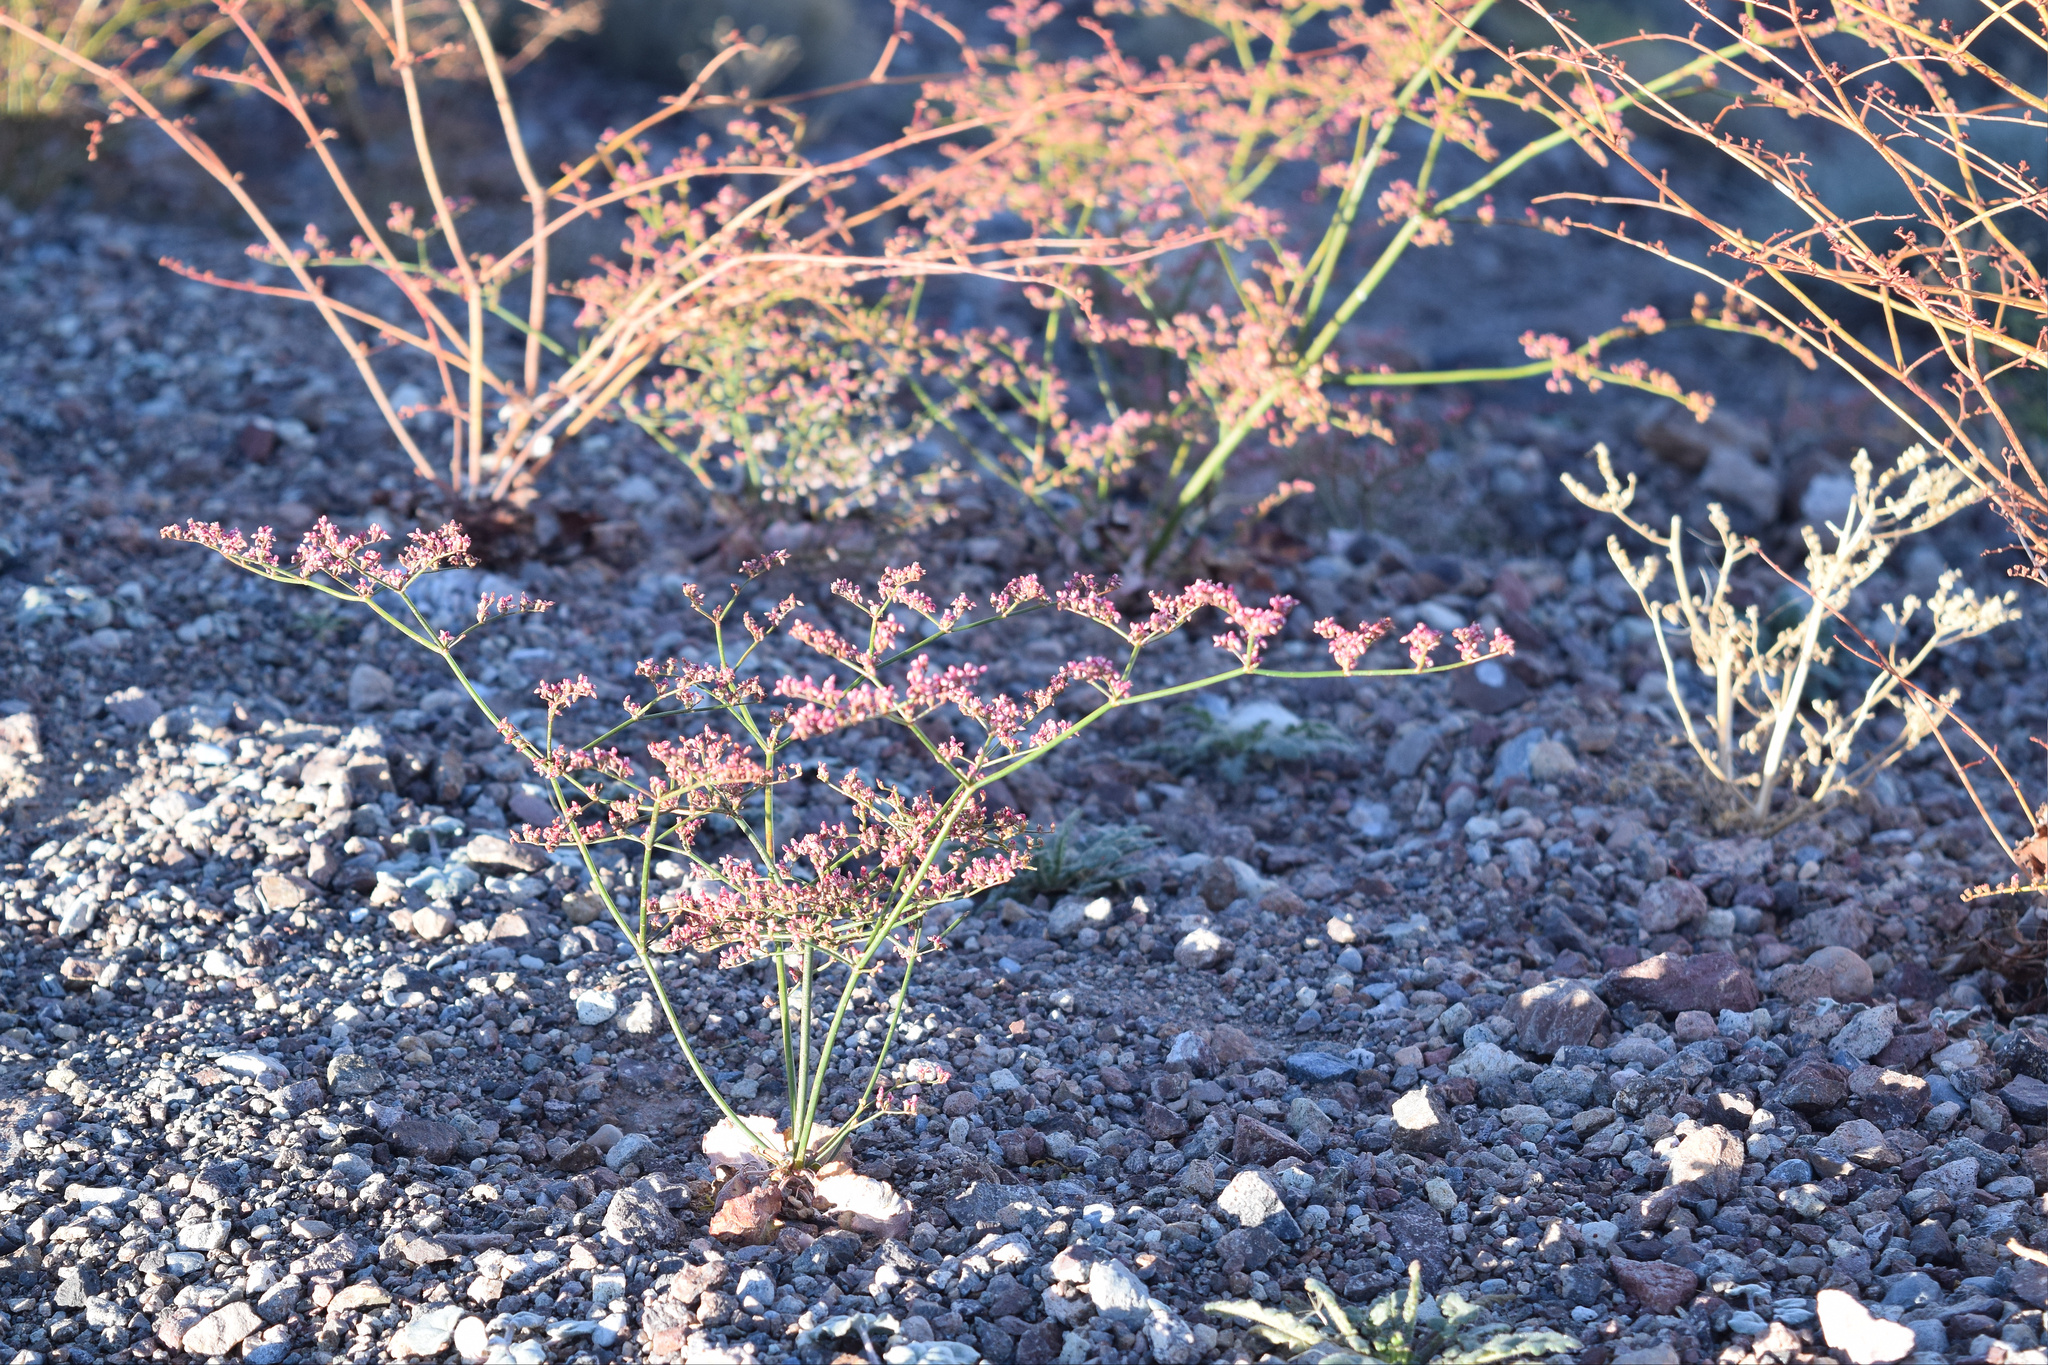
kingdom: Plantae
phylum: Tracheophyta
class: Magnoliopsida
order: Caryophyllales
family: Polygonaceae
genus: Eriogonum
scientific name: Eriogonum hoffmannii
